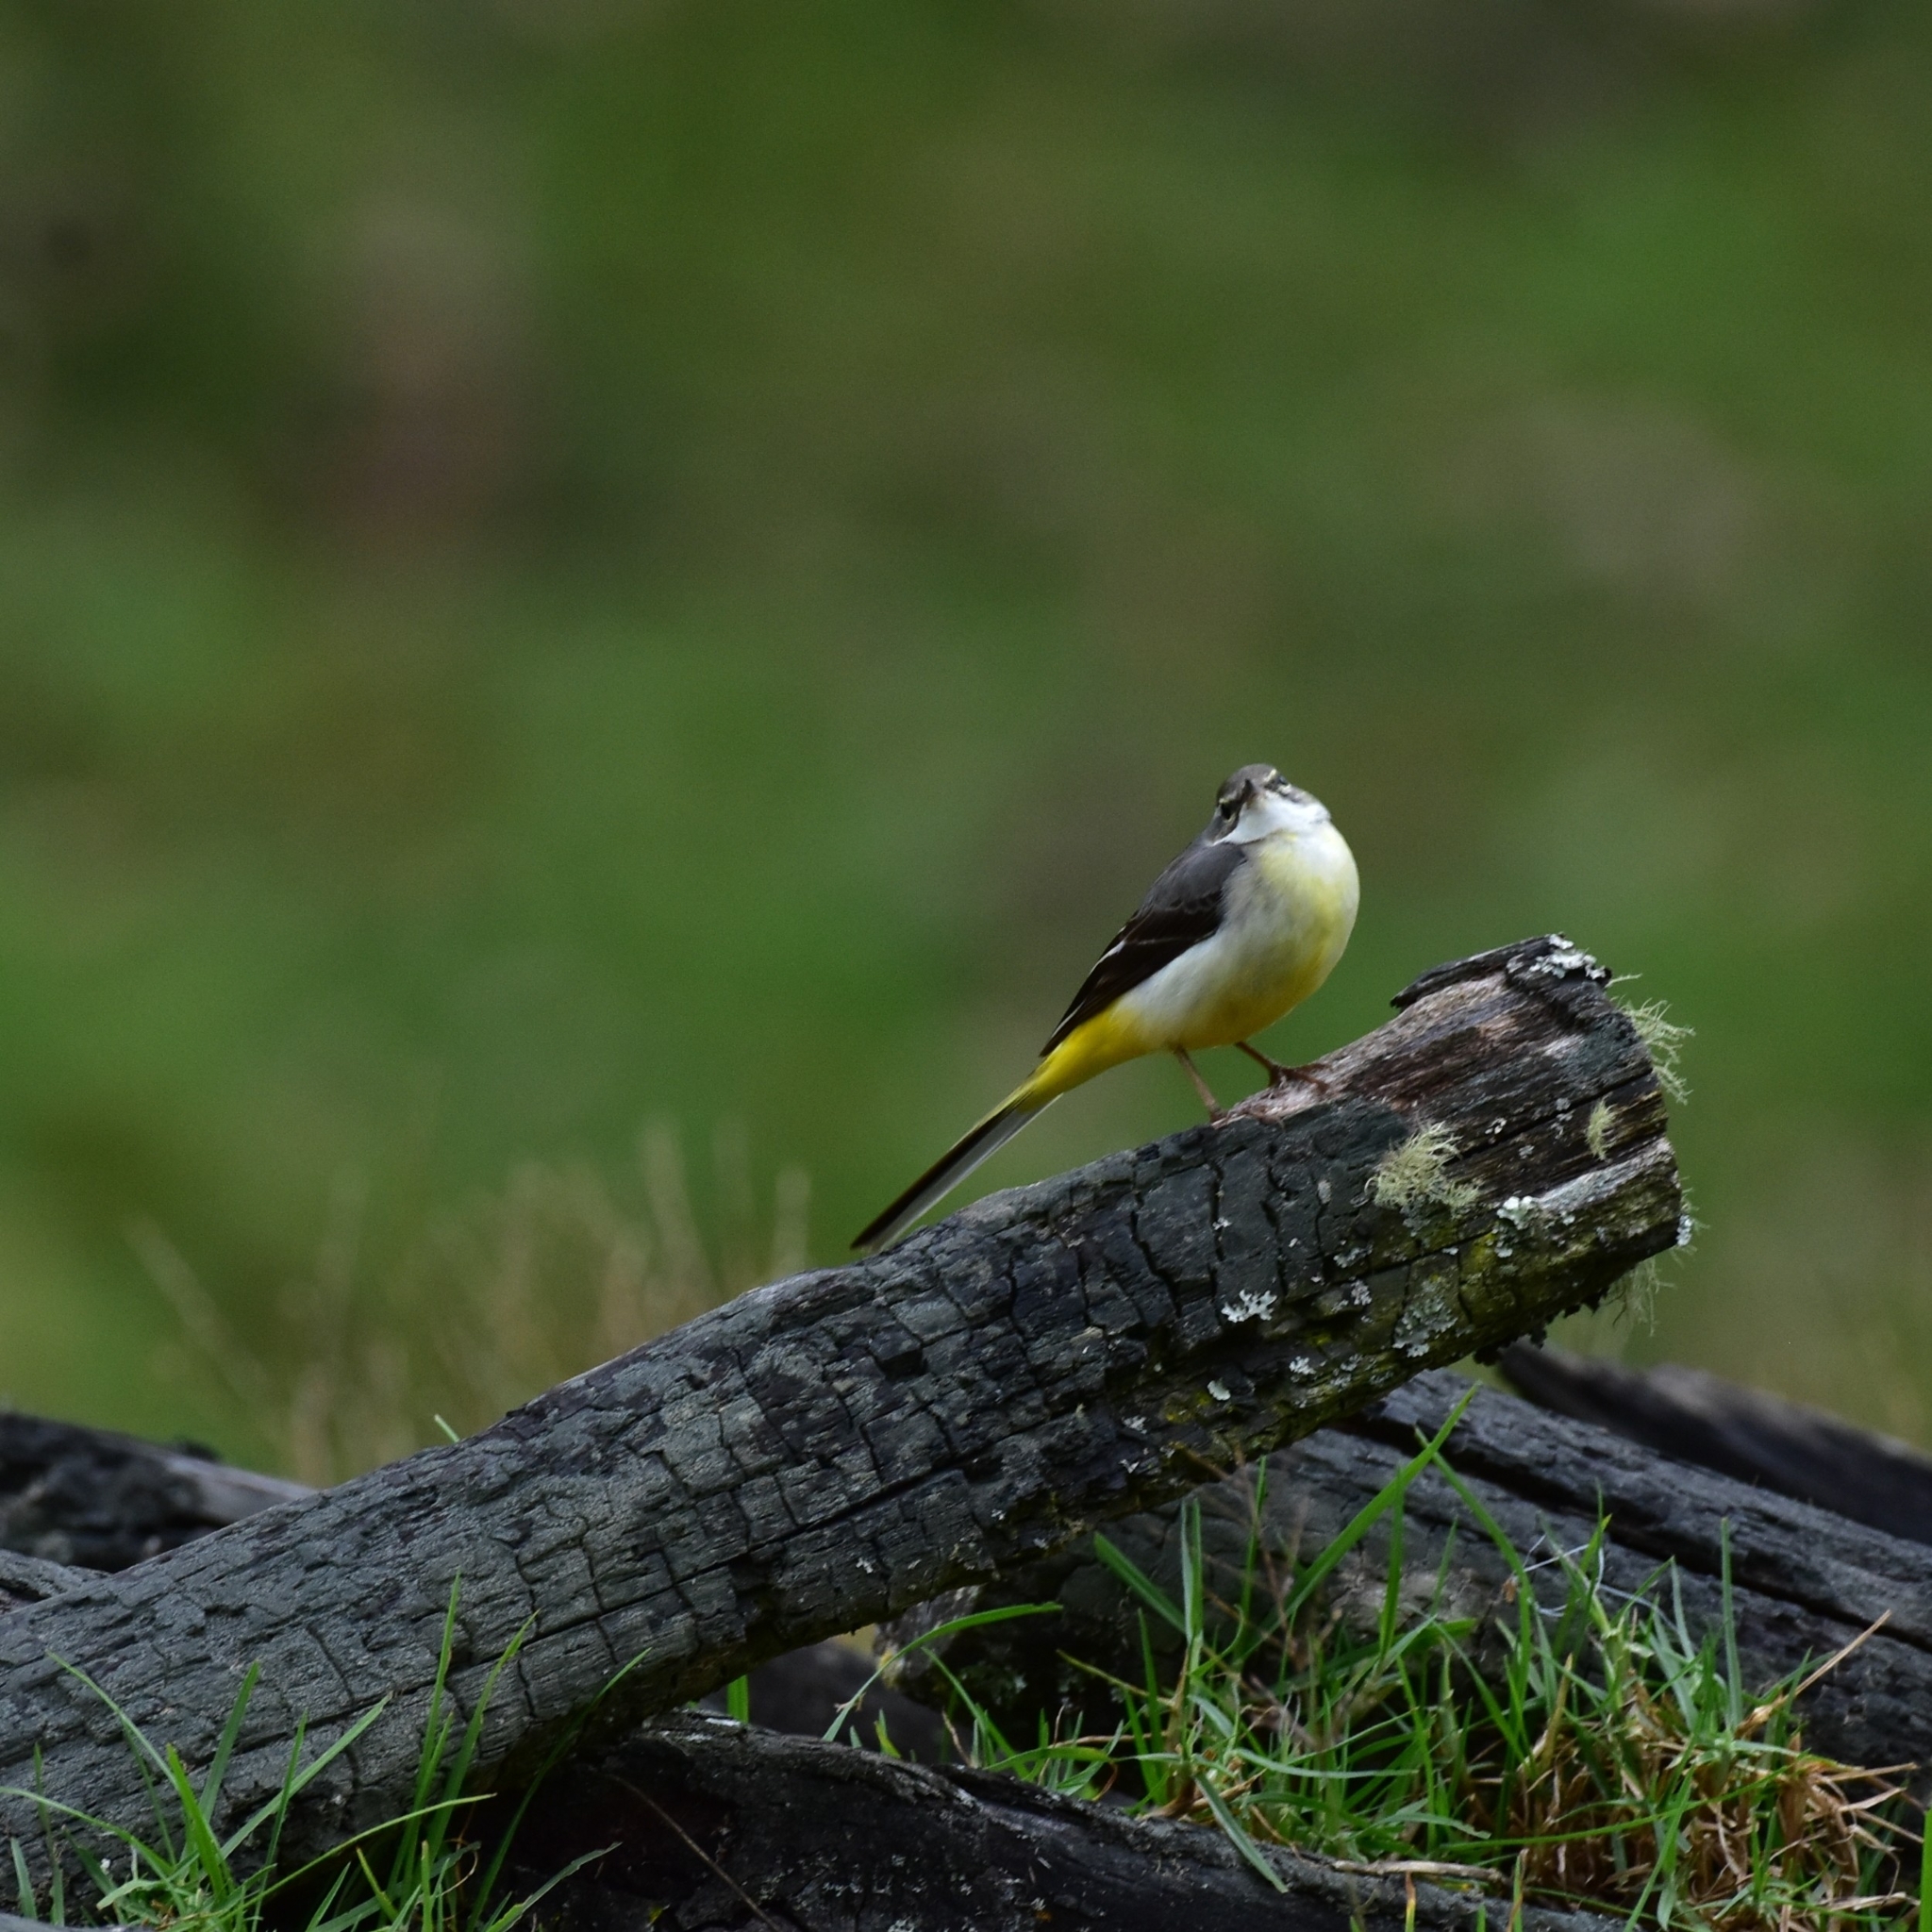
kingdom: Animalia
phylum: Chordata
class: Aves
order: Passeriformes
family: Motacillidae
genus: Motacilla
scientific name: Motacilla cinerea
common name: Grey wagtail
